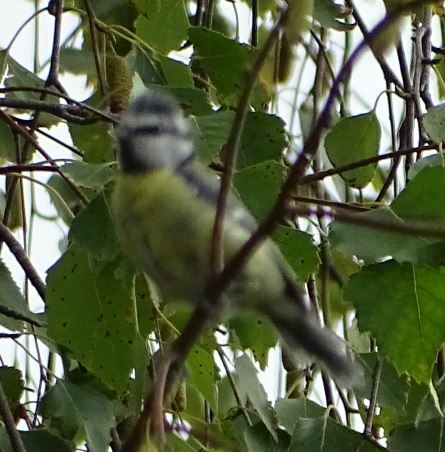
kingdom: Animalia
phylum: Chordata
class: Aves
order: Passeriformes
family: Paridae
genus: Cyanistes
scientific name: Cyanistes caeruleus
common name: Eurasian blue tit
